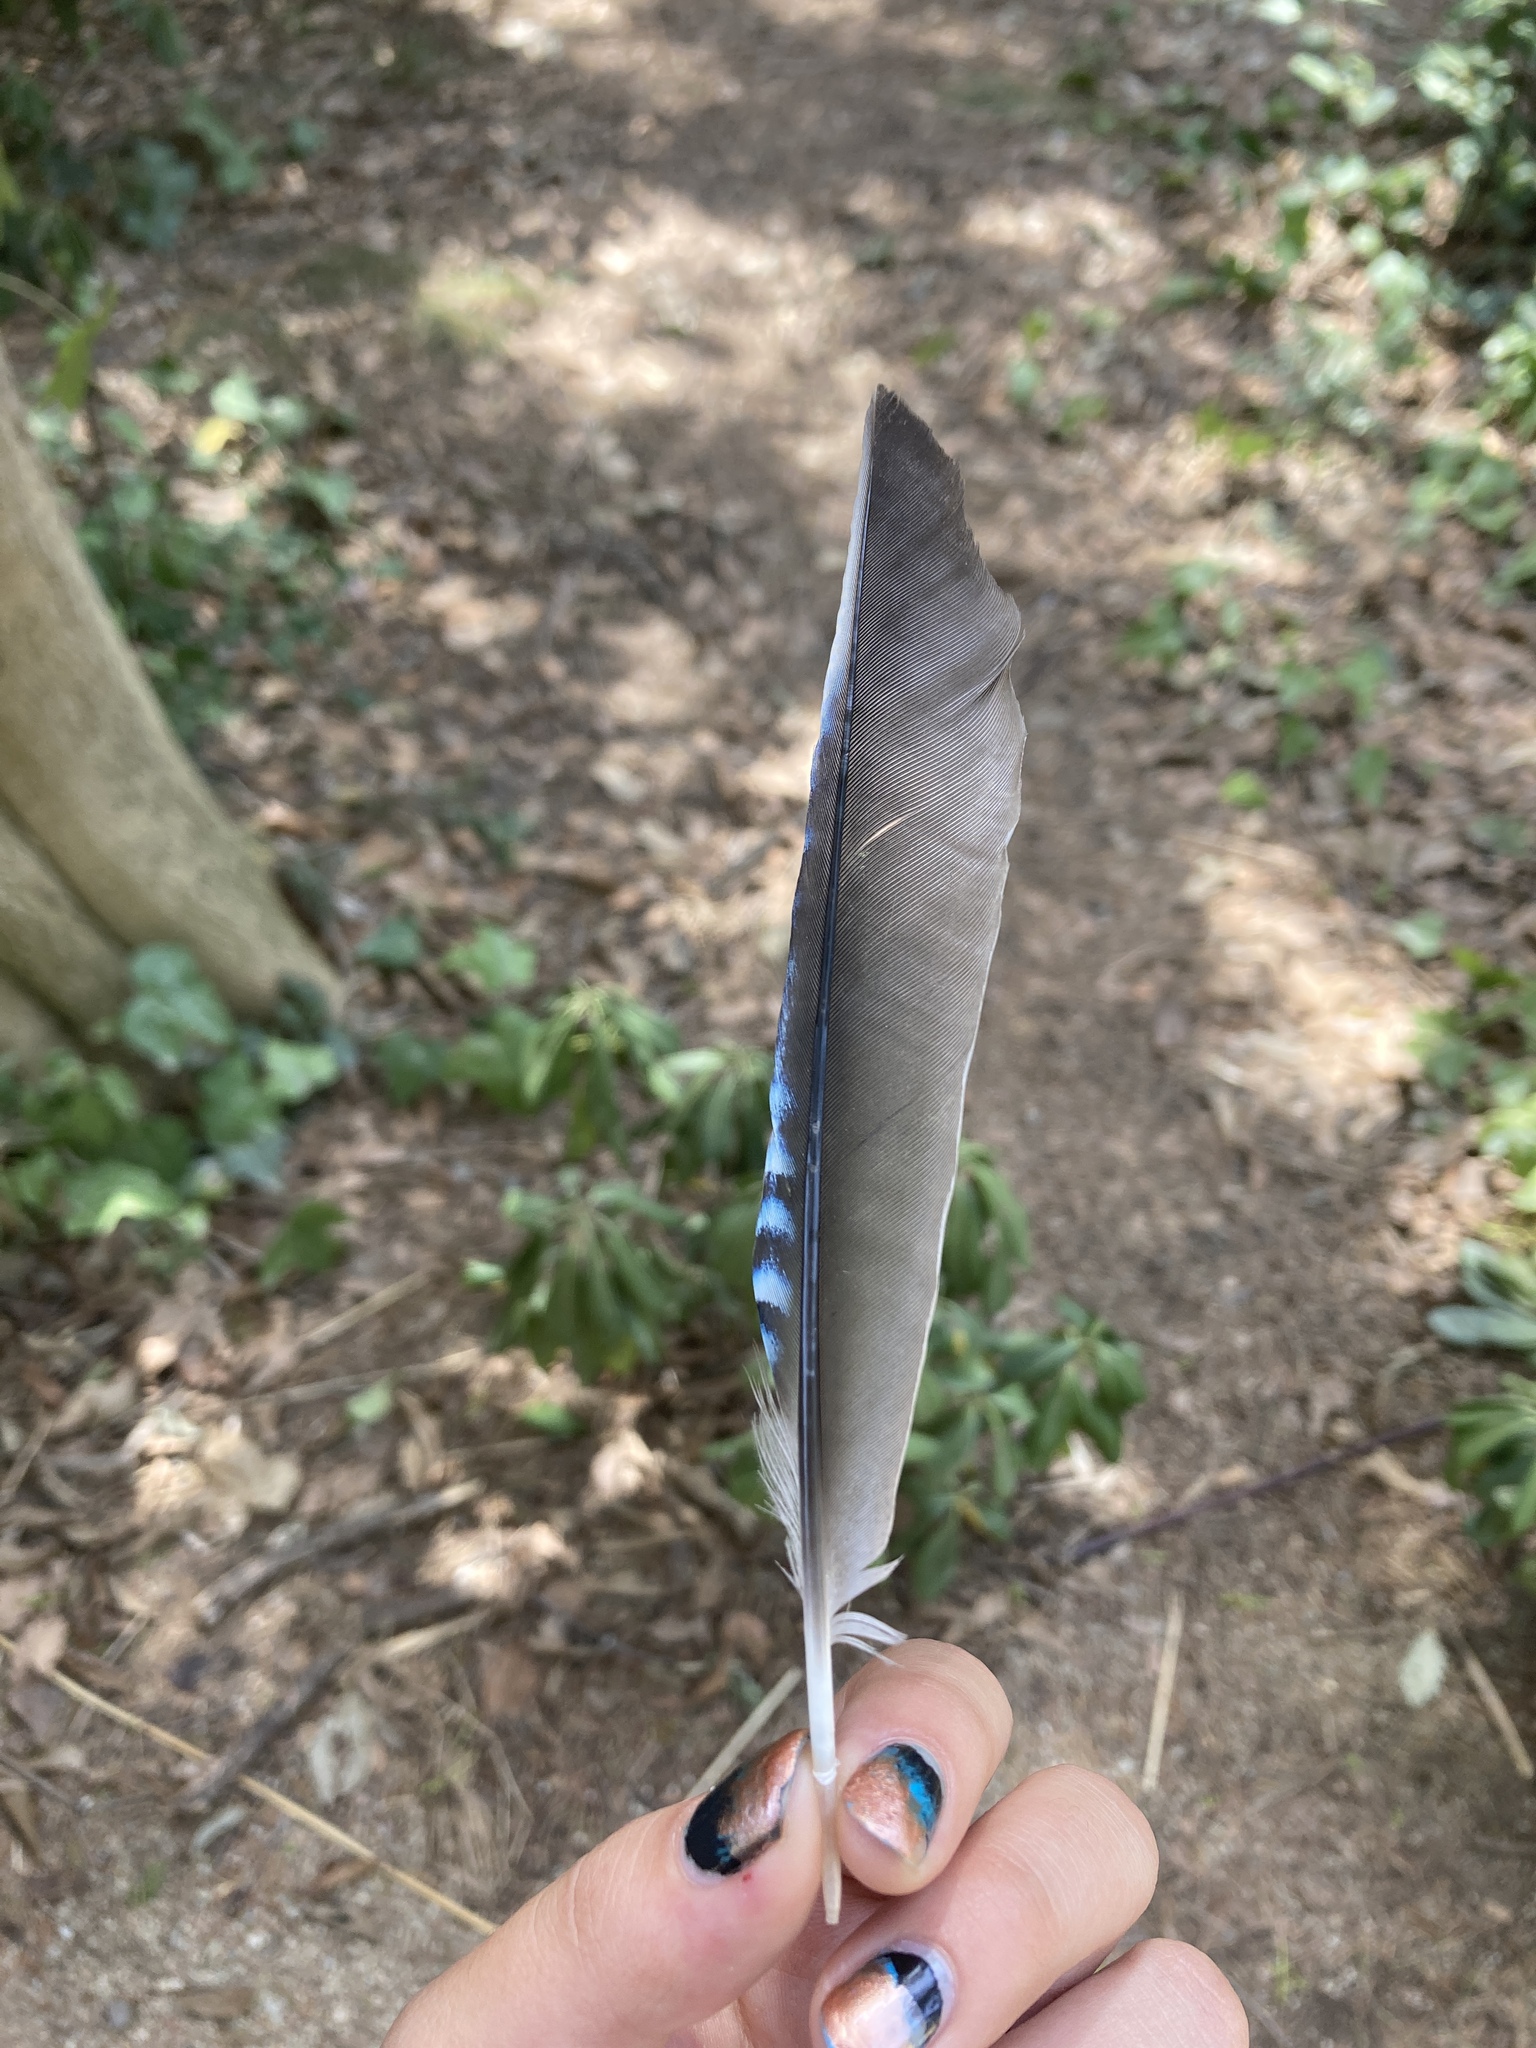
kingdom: Animalia
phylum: Chordata
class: Aves
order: Passeriformes
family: Corvidae
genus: Garrulus
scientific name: Garrulus glandarius
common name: Eurasian jay
